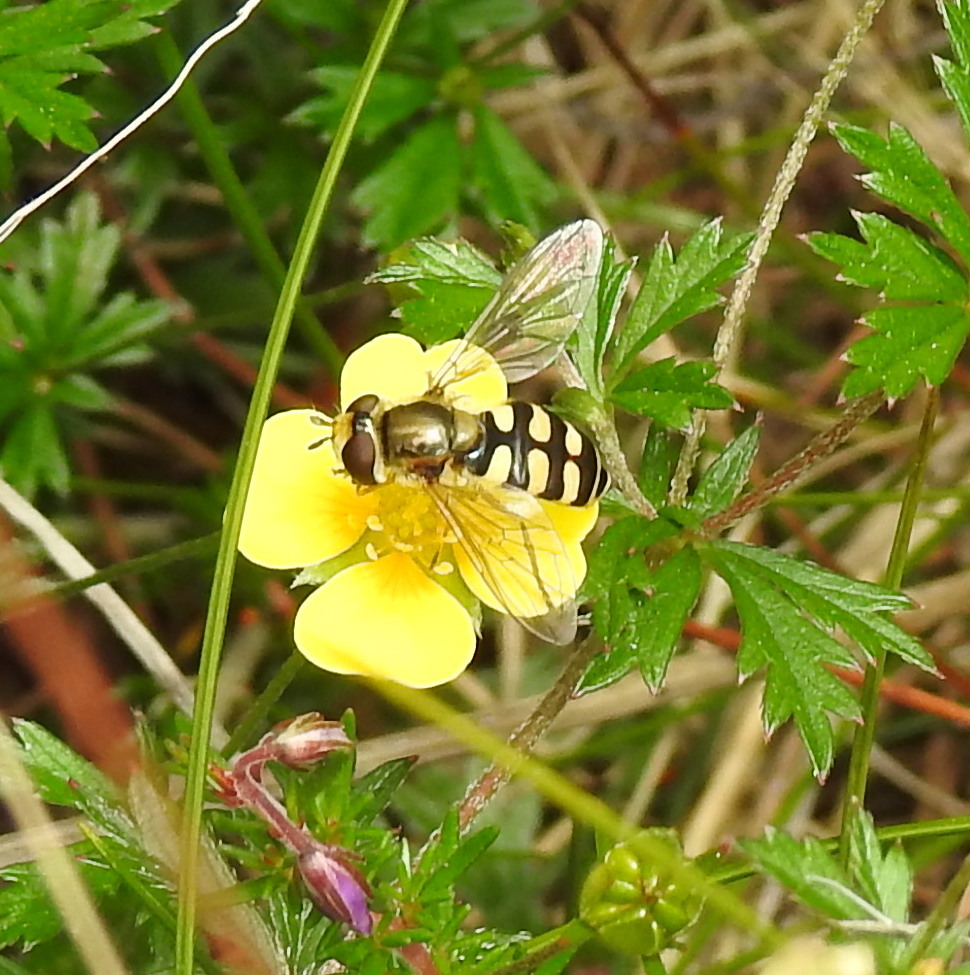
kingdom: Animalia
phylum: Arthropoda
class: Insecta
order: Diptera
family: Syrphidae
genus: Eupeodes
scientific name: Eupeodes corollae
